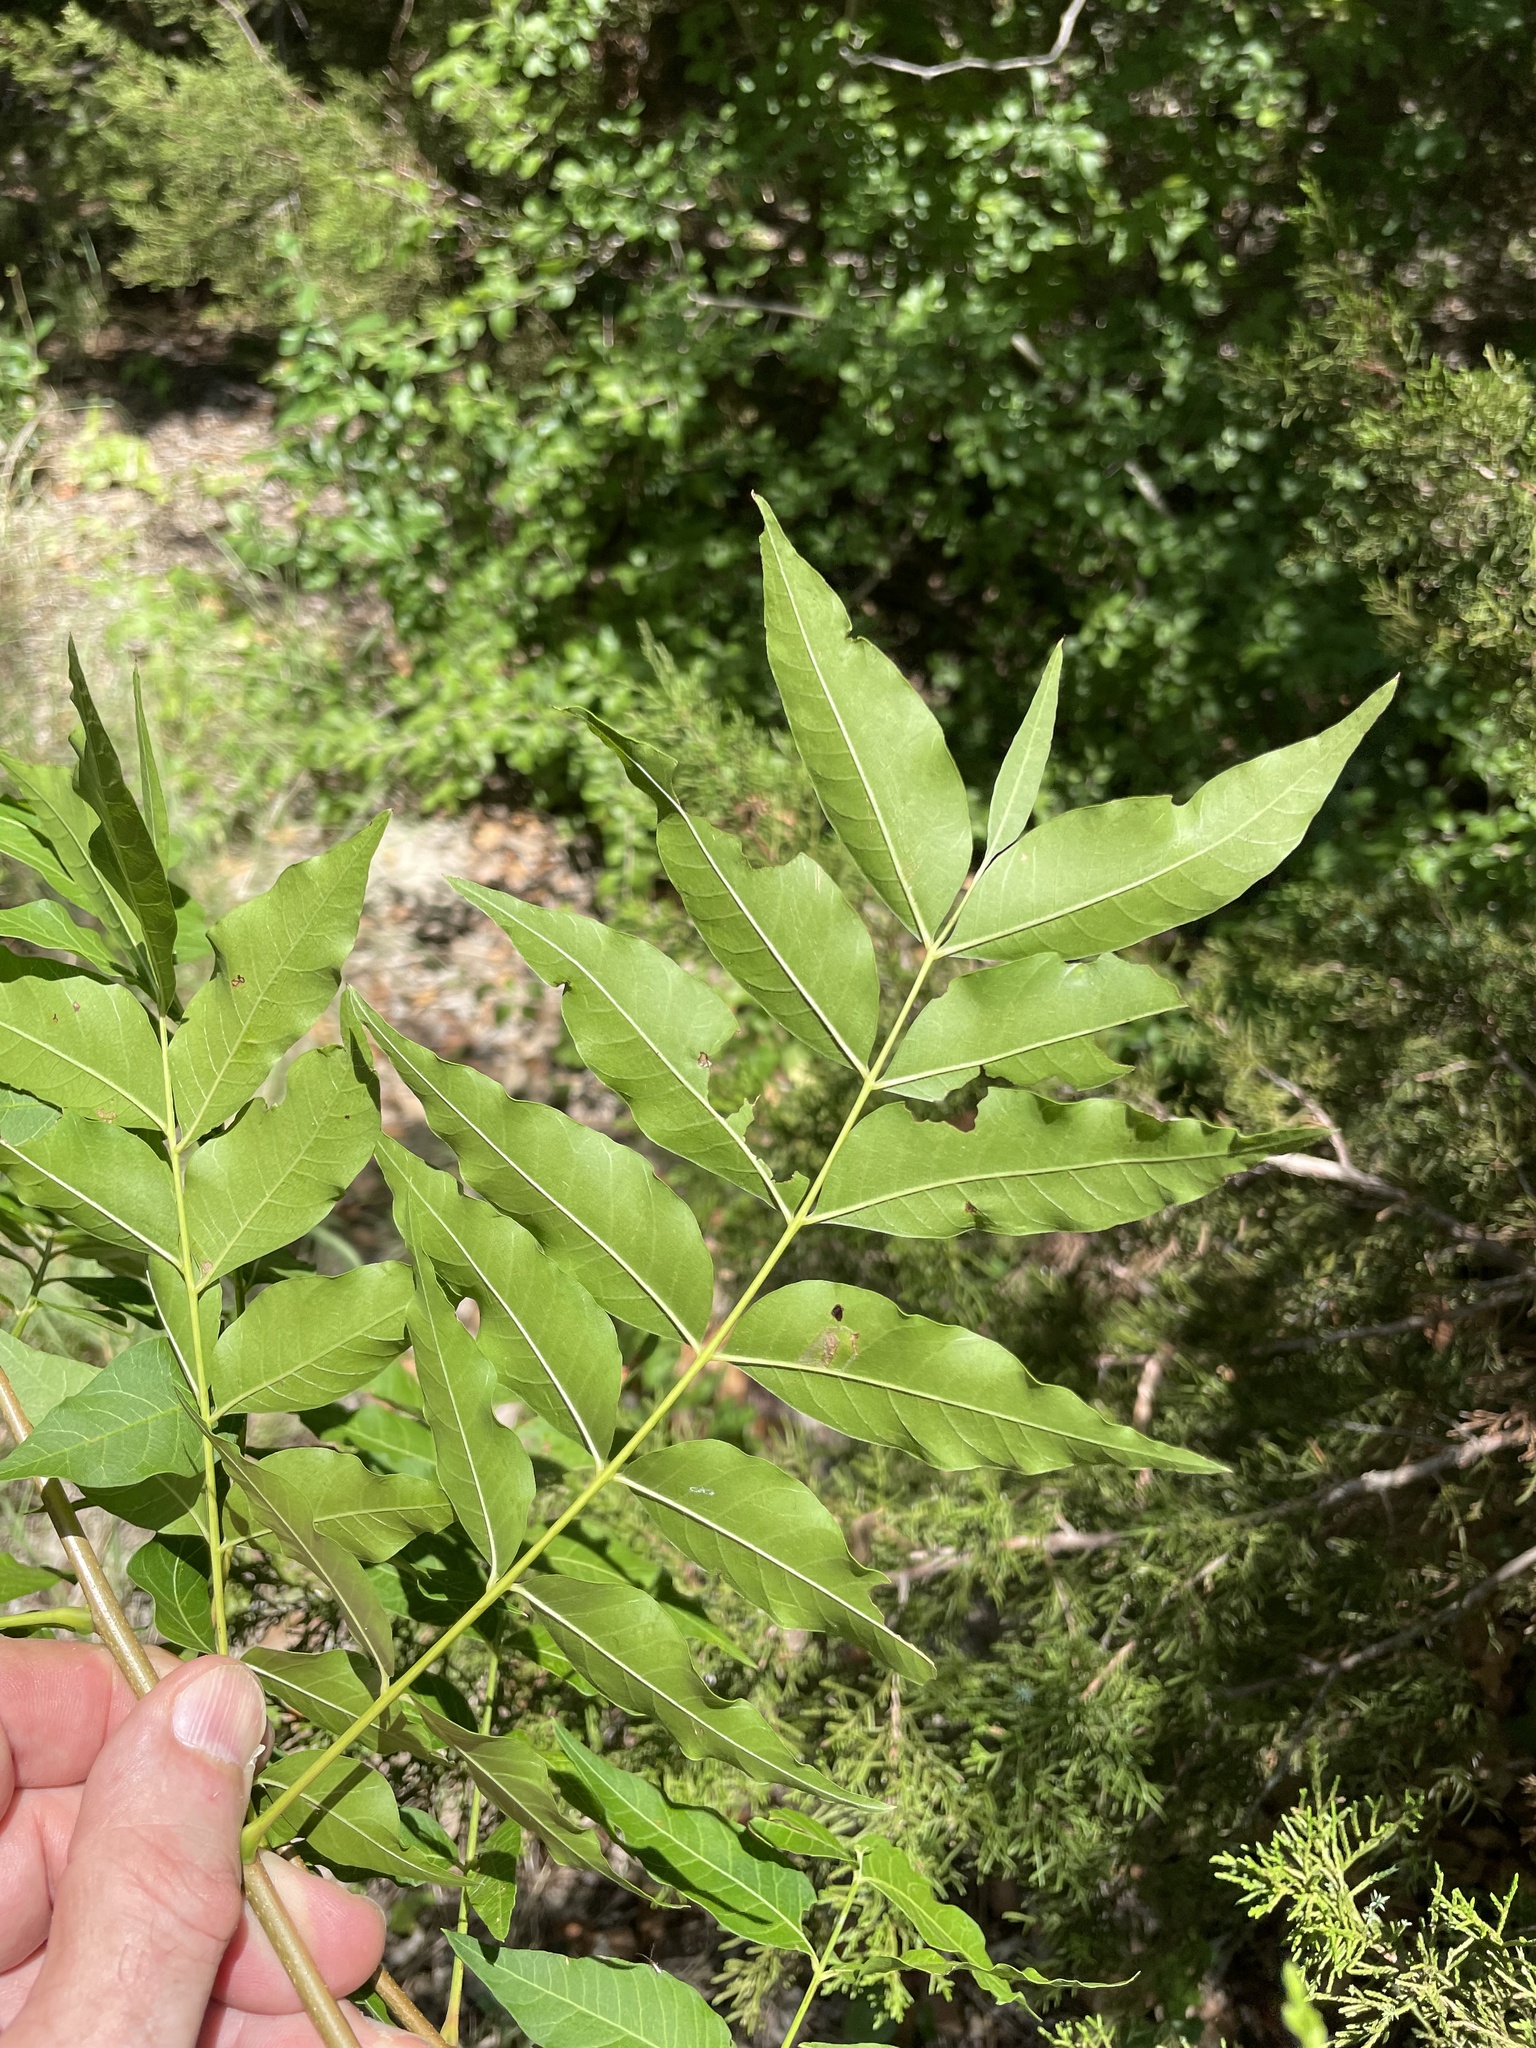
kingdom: Plantae
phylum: Tracheophyta
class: Magnoliopsida
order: Sapindales
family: Anacardiaceae
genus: Pistacia
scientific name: Pistacia chinensis
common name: Chinese pistache
